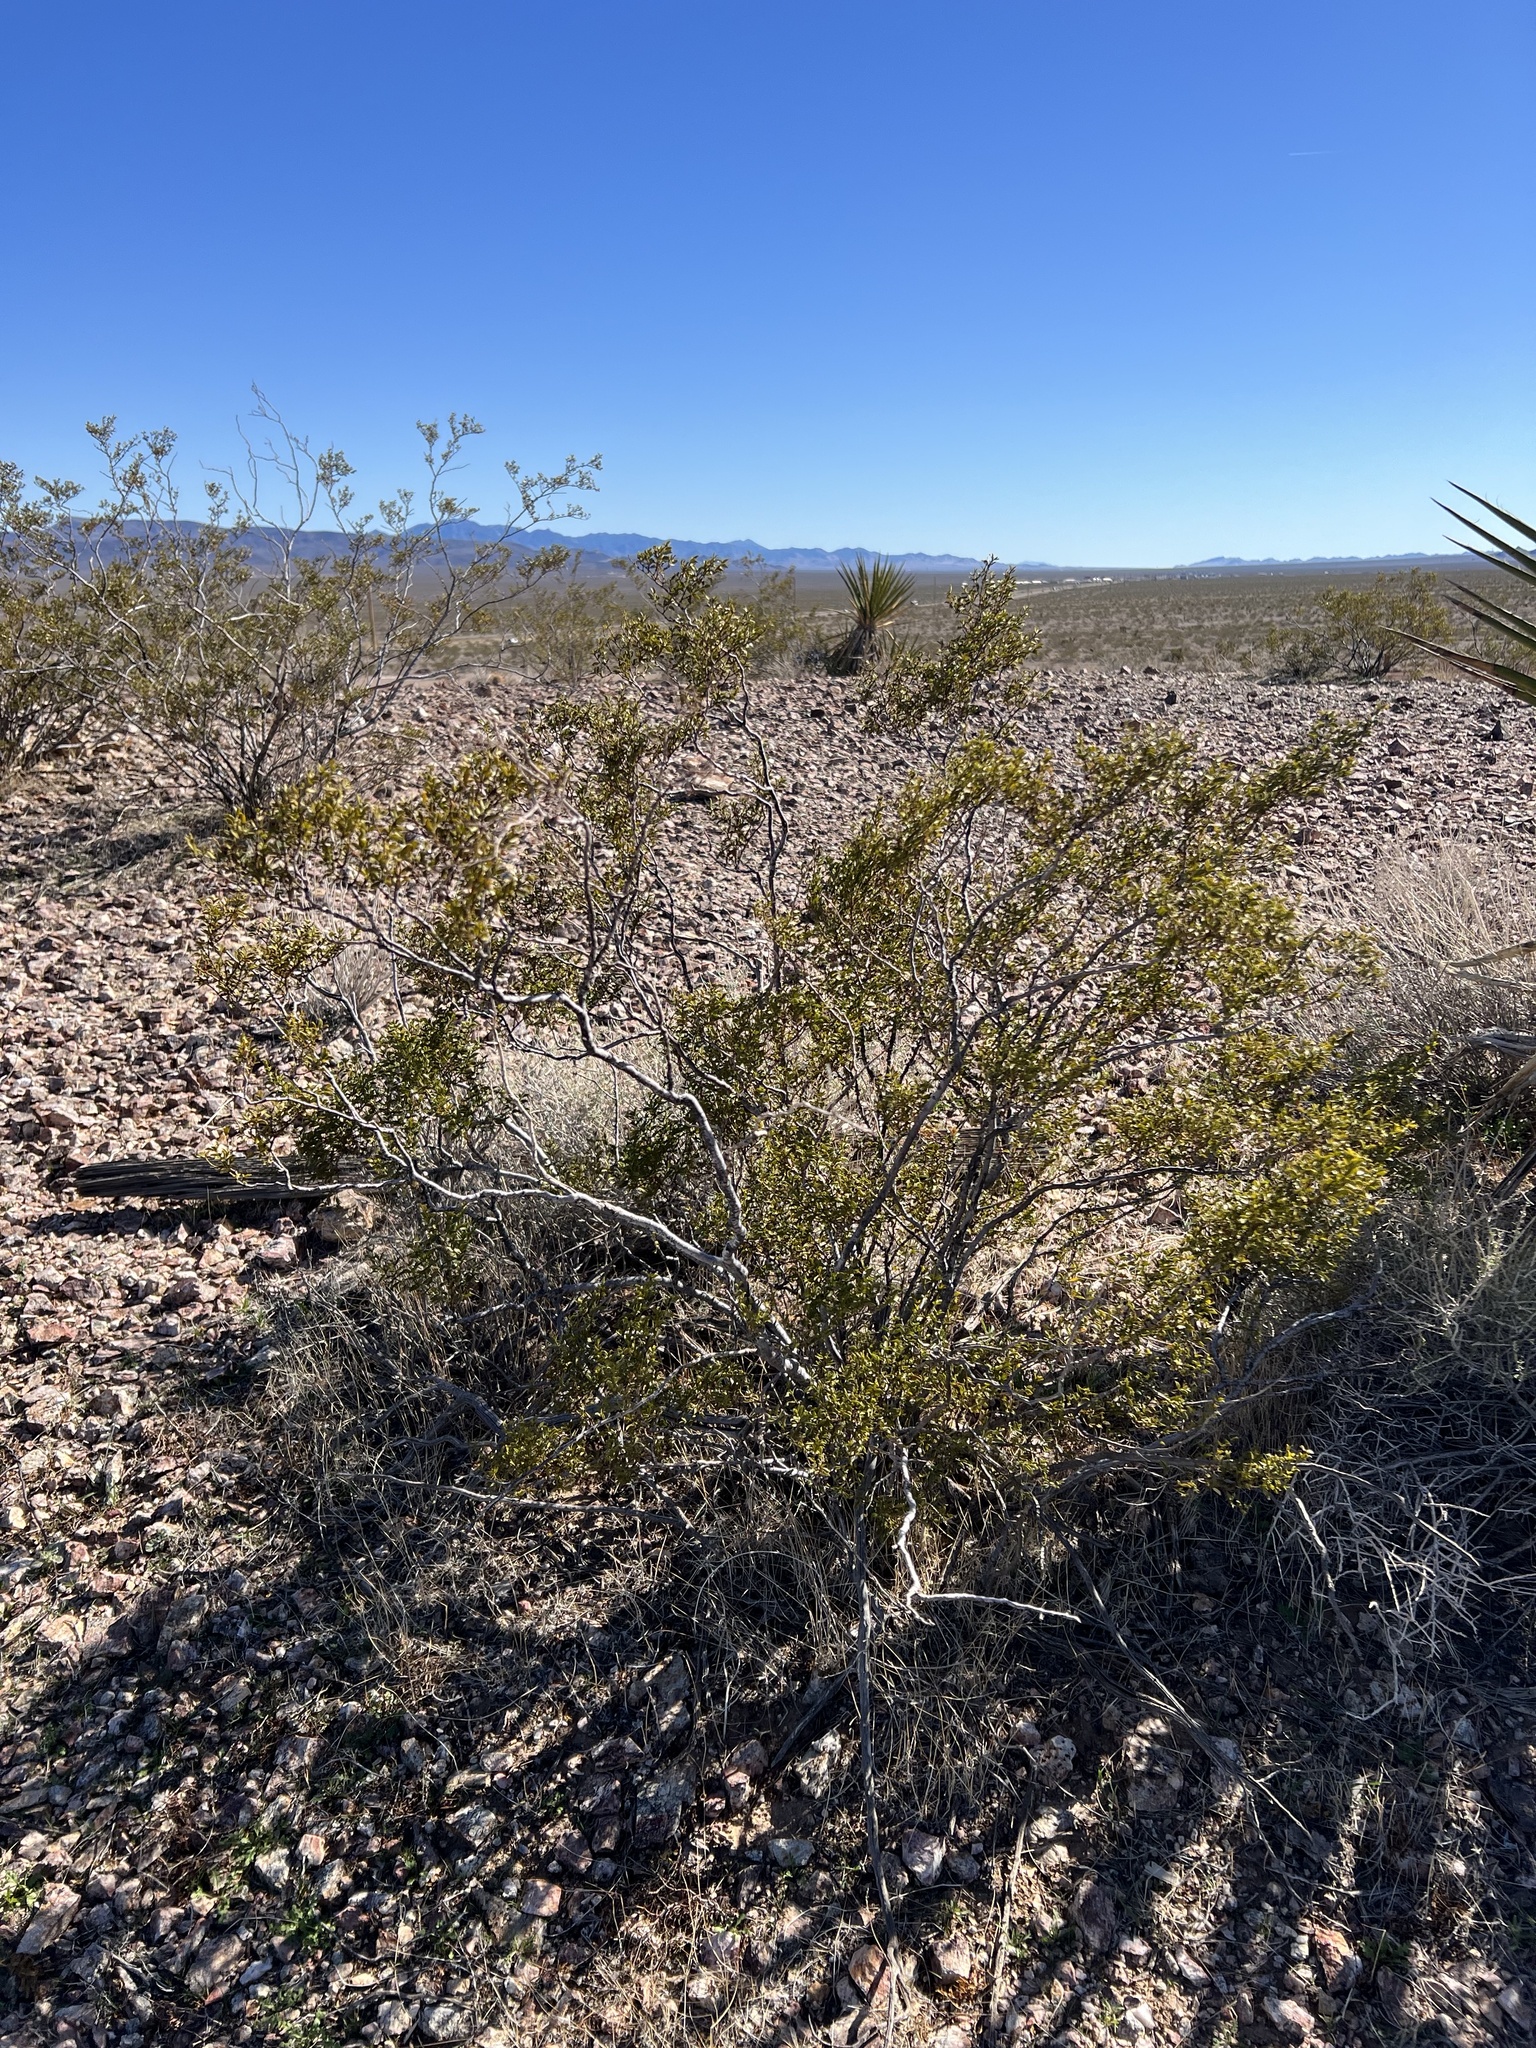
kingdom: Plantae
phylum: Tracheophyta
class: Magnoliopsida
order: Zygophyllales
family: Zygophyllaceae
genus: Larrea
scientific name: Larrea tridentata
